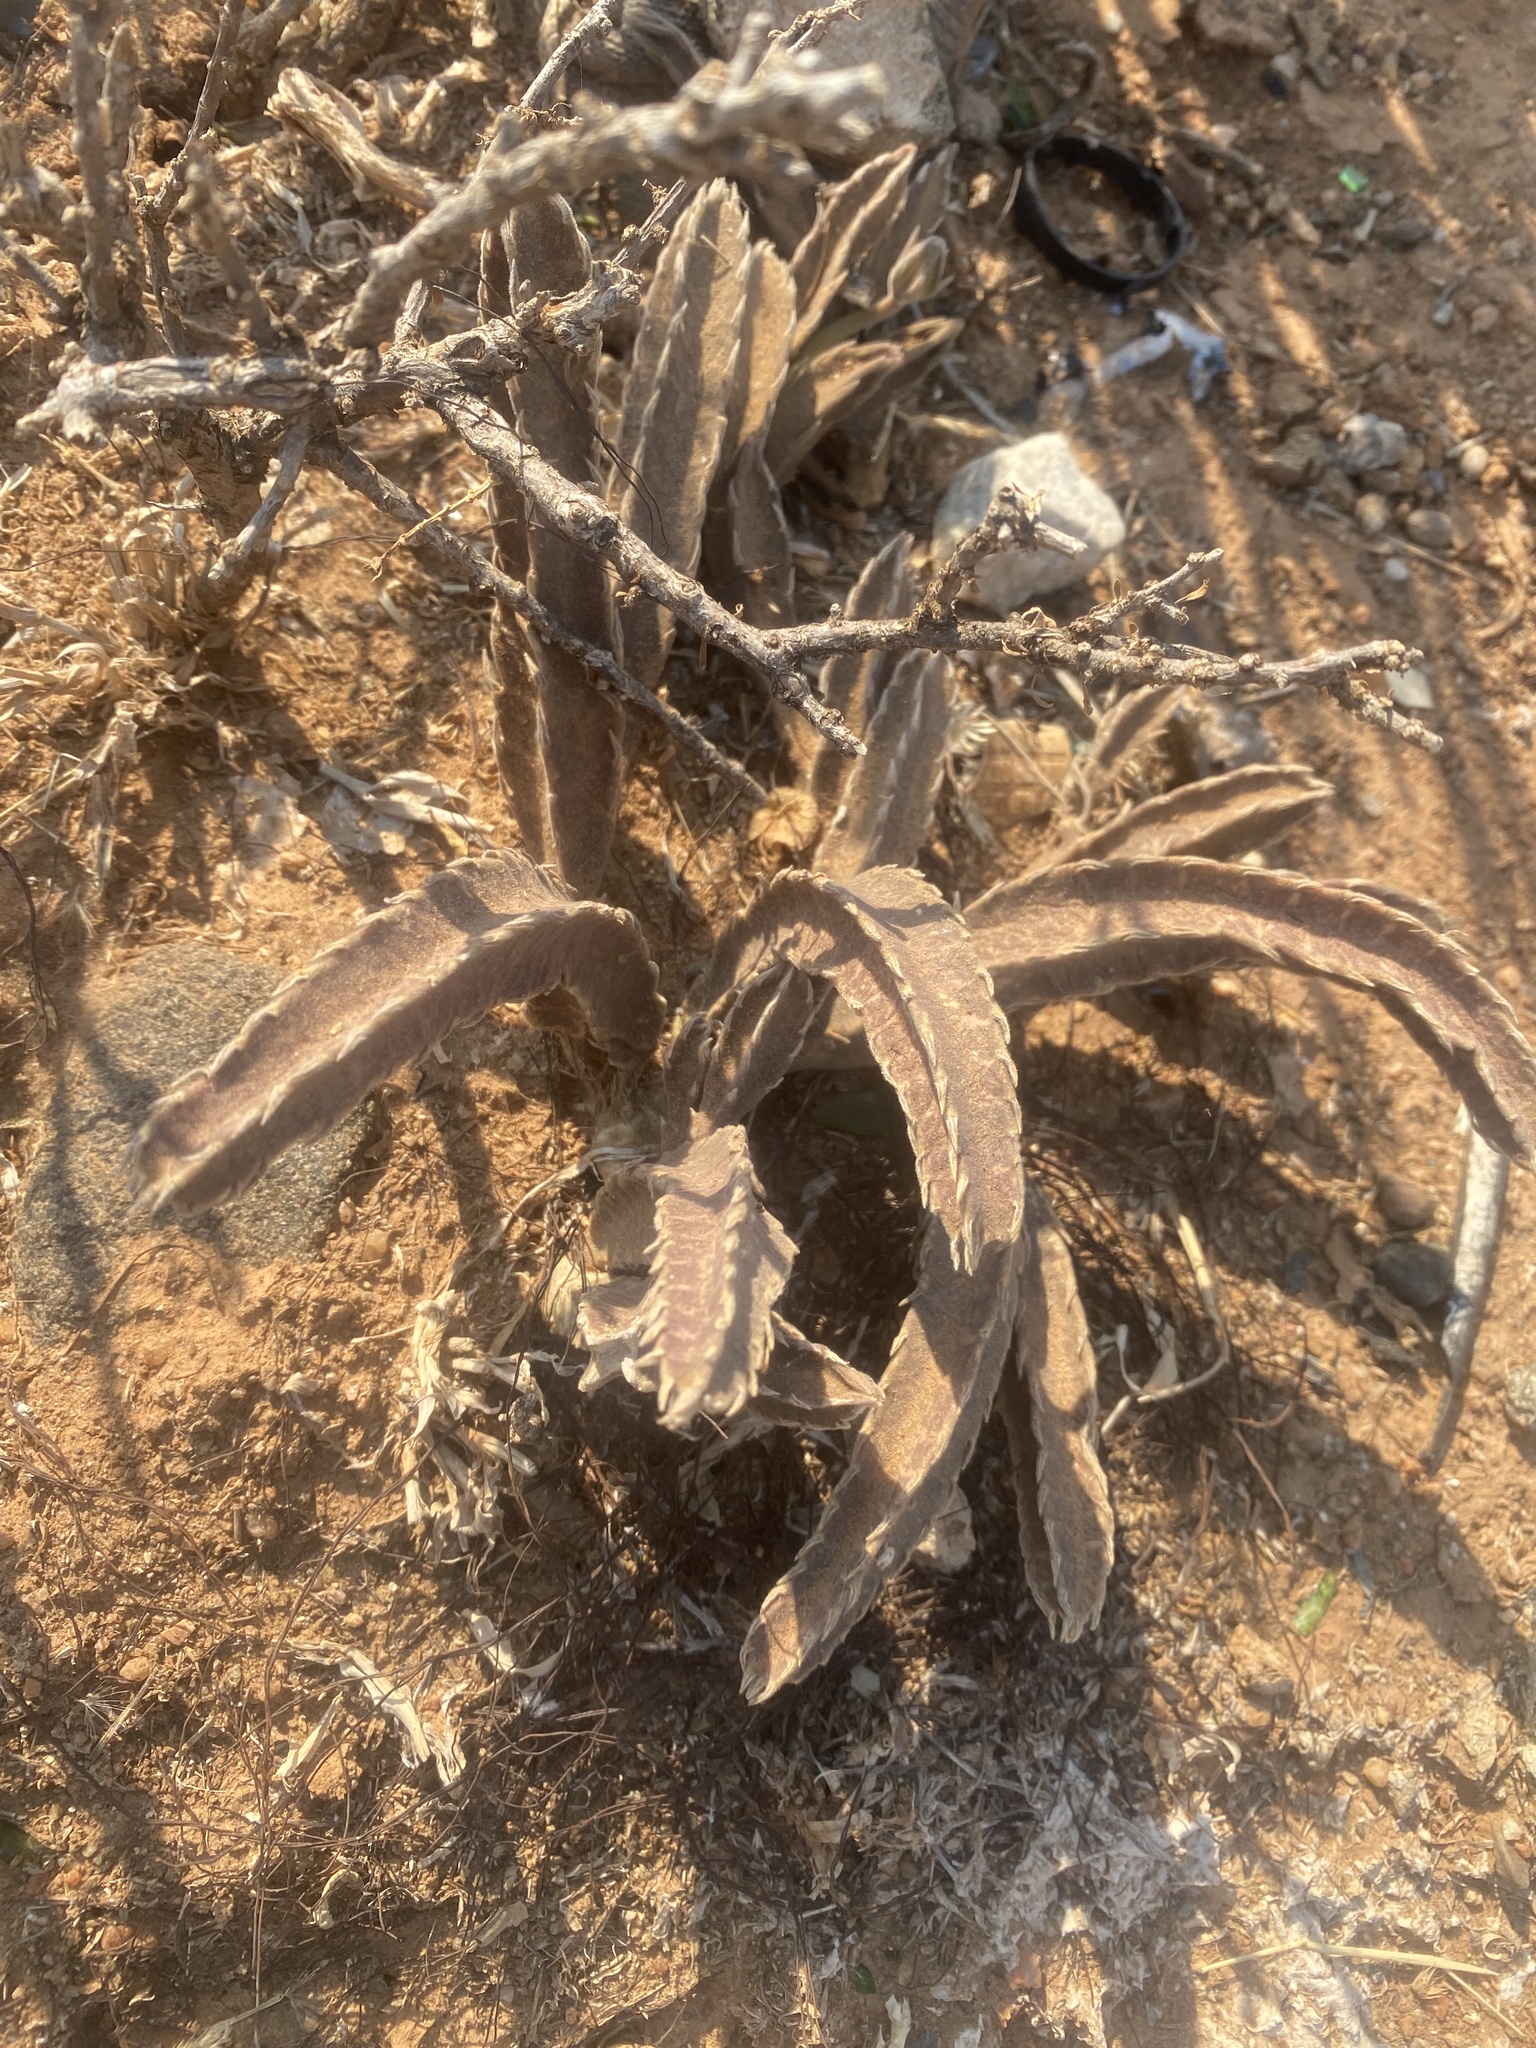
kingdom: Plantae
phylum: Tracheophyta
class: Magnoliopsida
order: Gentianales
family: Apocynaceae
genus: Stapelia
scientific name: Stapelia gettliffei
